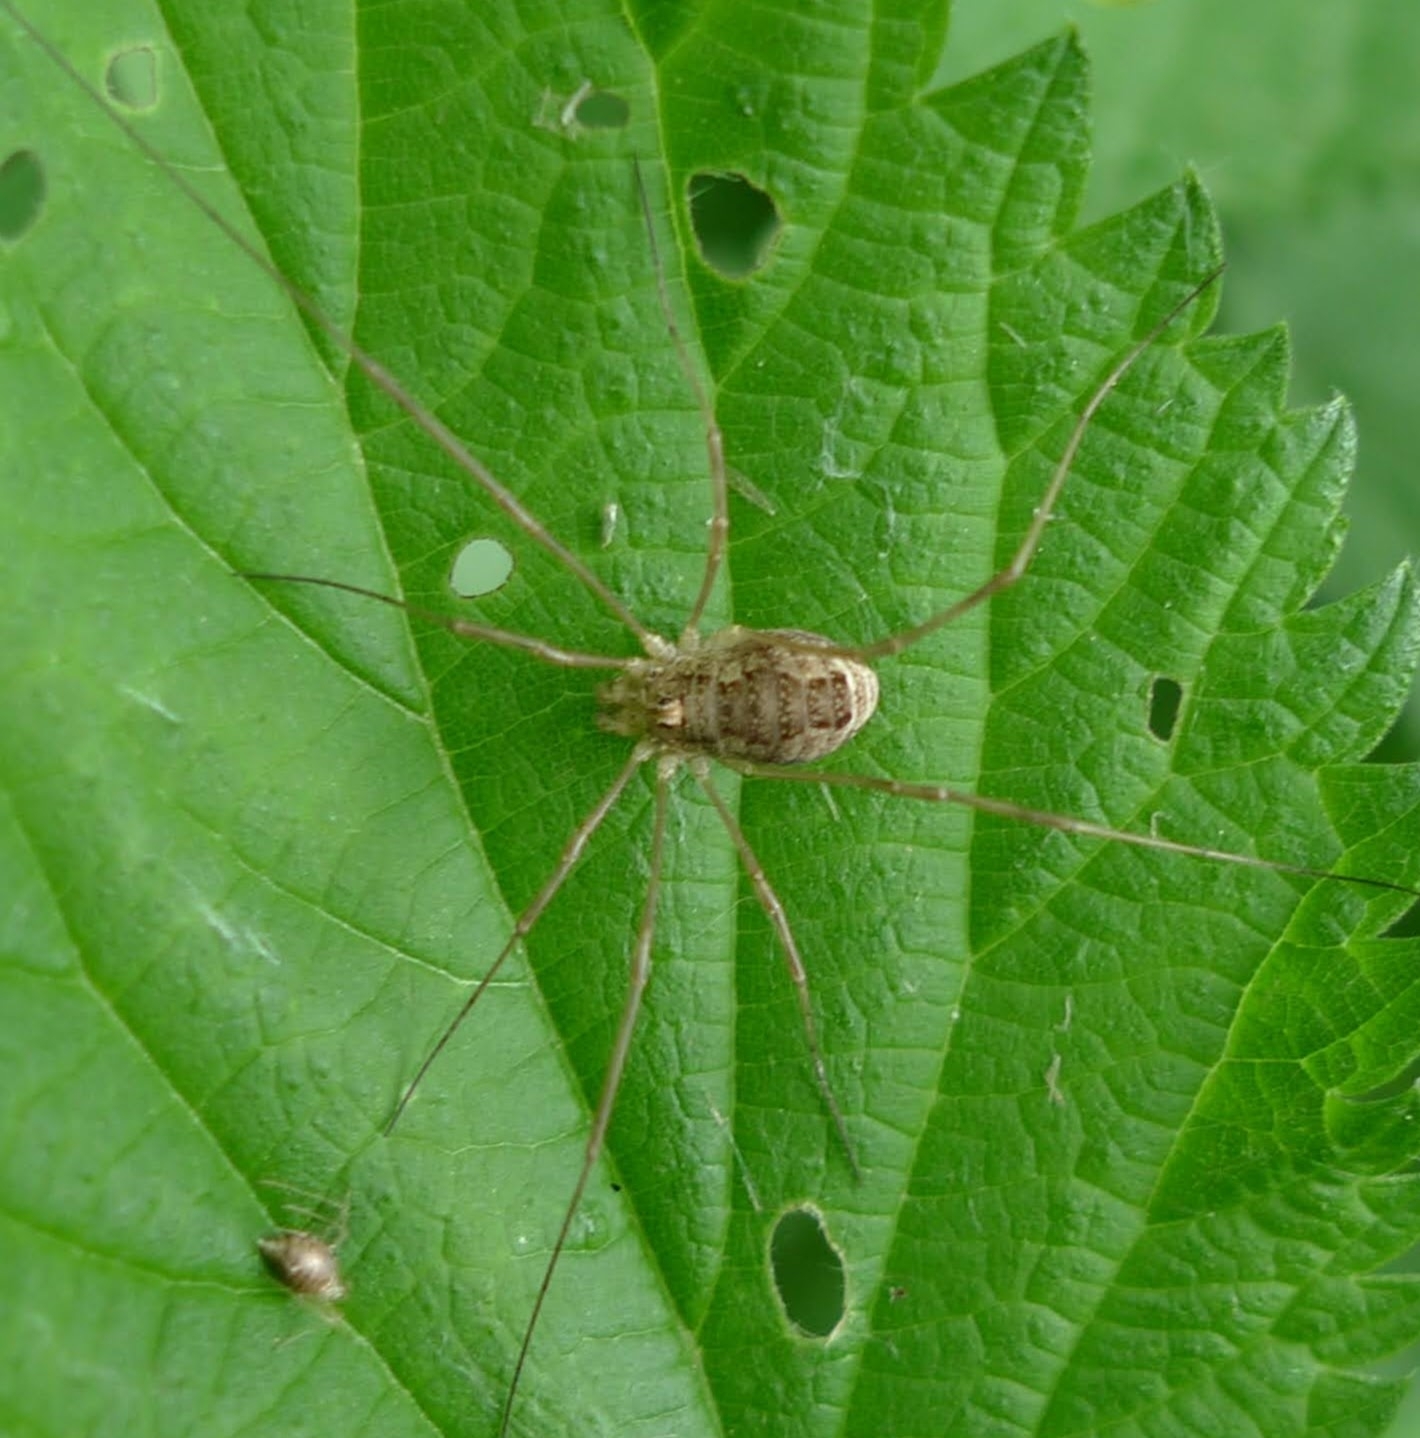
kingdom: Animalia
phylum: Arthropoda
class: Arachnida
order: Opiliones
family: Phalangiidae
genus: Rilaena
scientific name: Rilaena triangularis
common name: Spring harvestman
